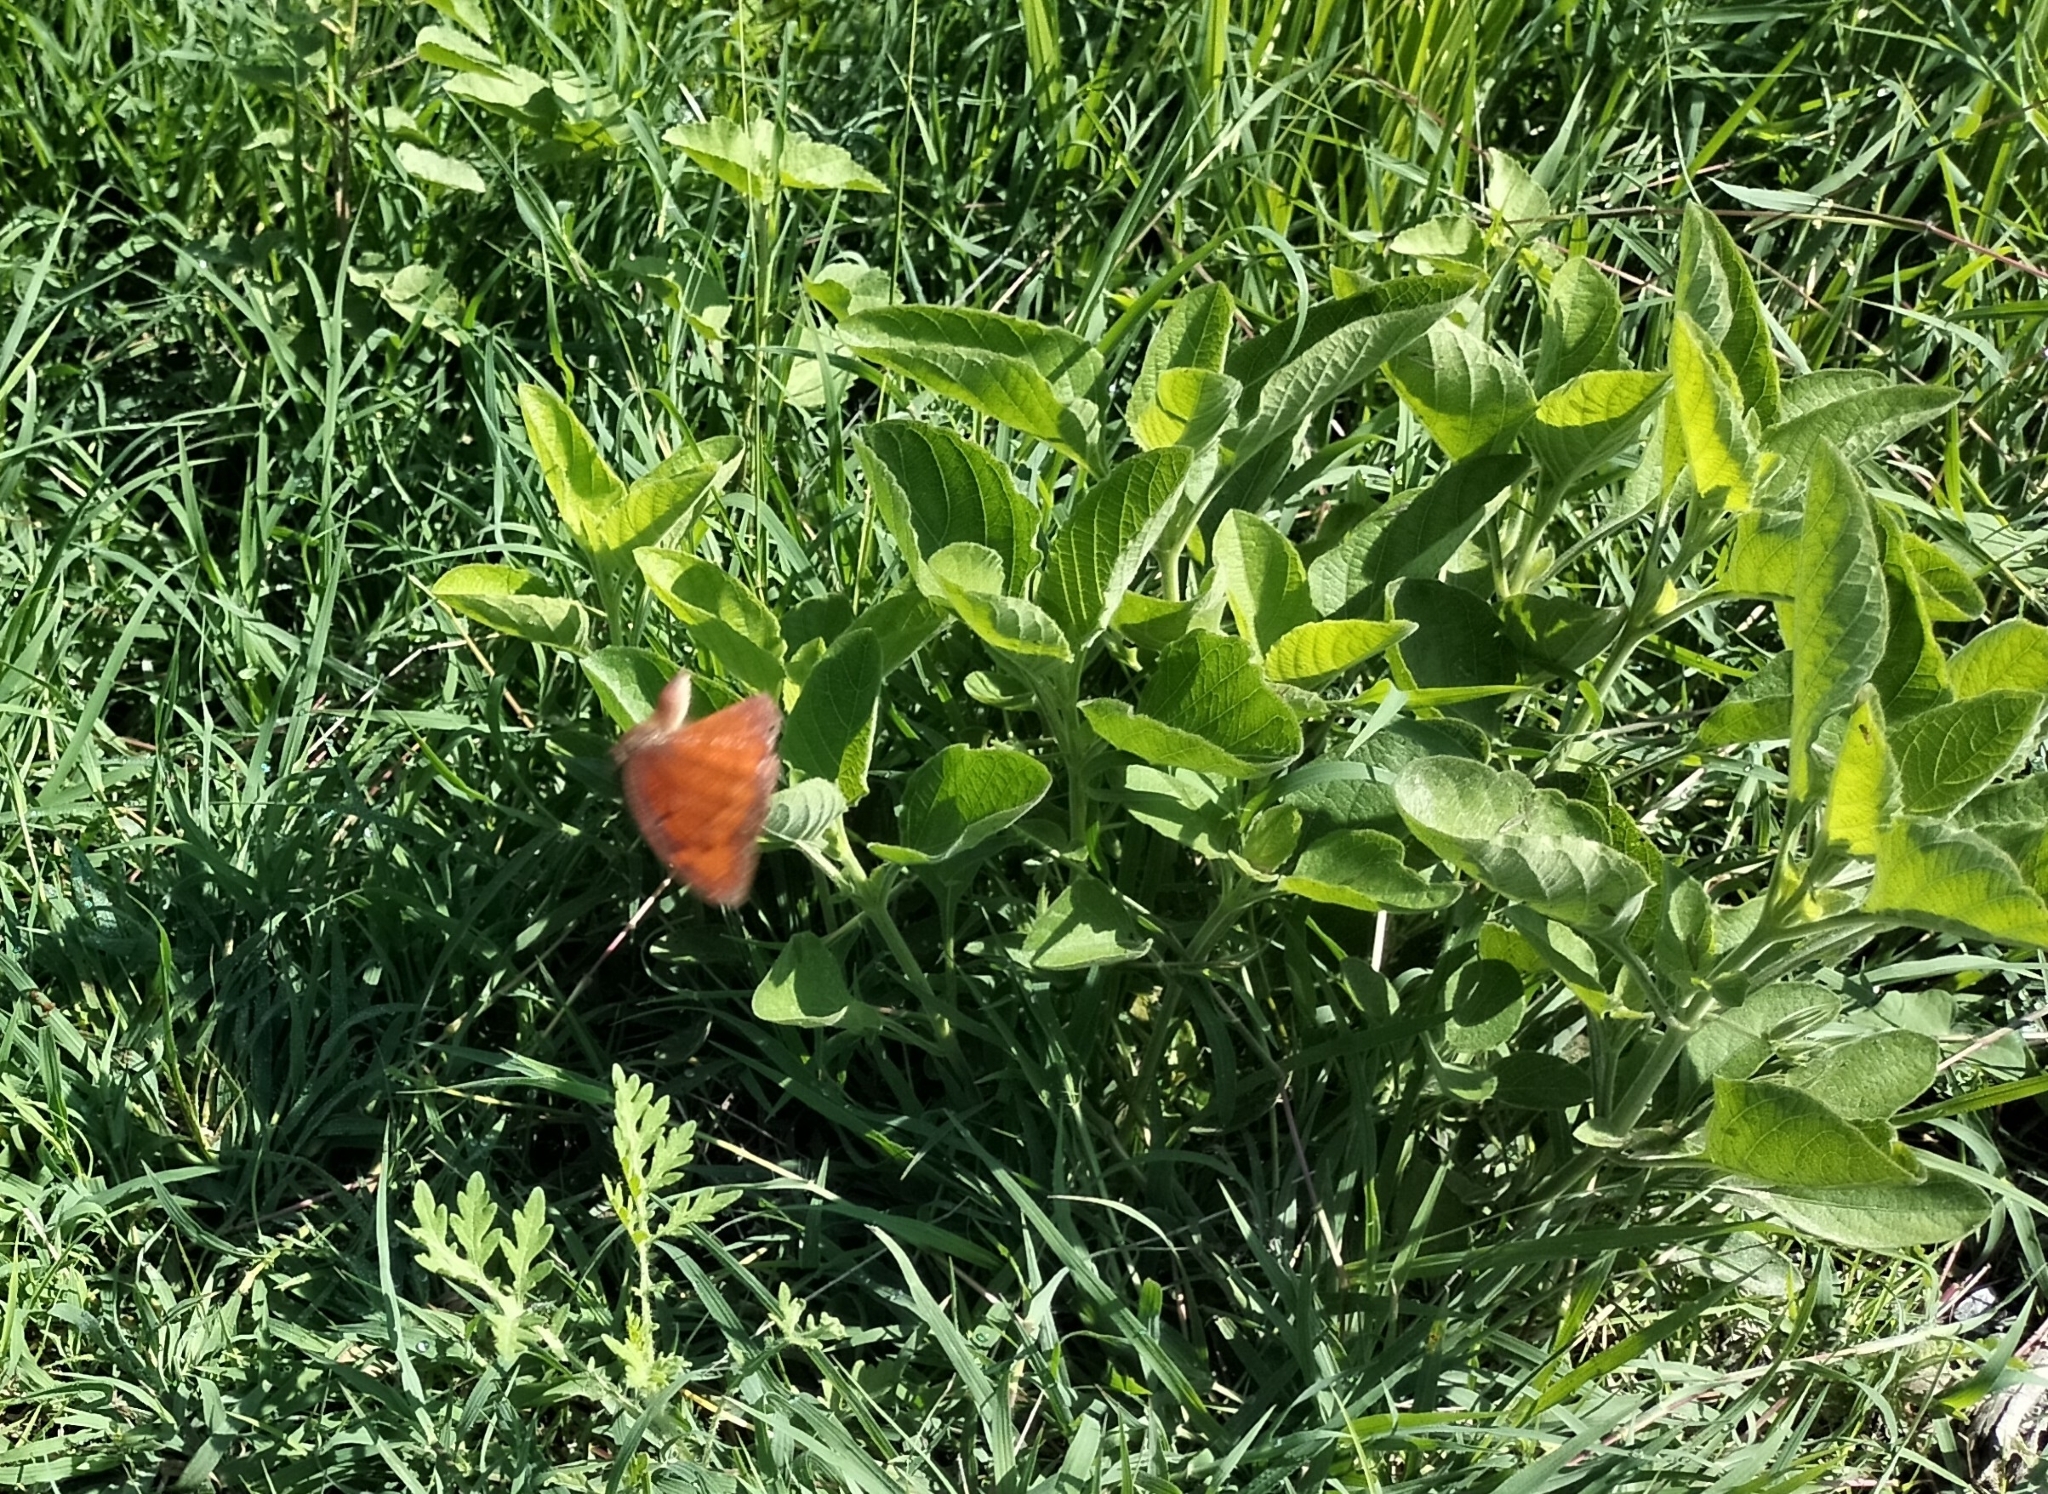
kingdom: Animalia
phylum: Arthropoda
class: Insecta
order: Lepidoptera
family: Nymphalidae
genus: Anaea
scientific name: Anaea aidea
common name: Tropical leafwing
